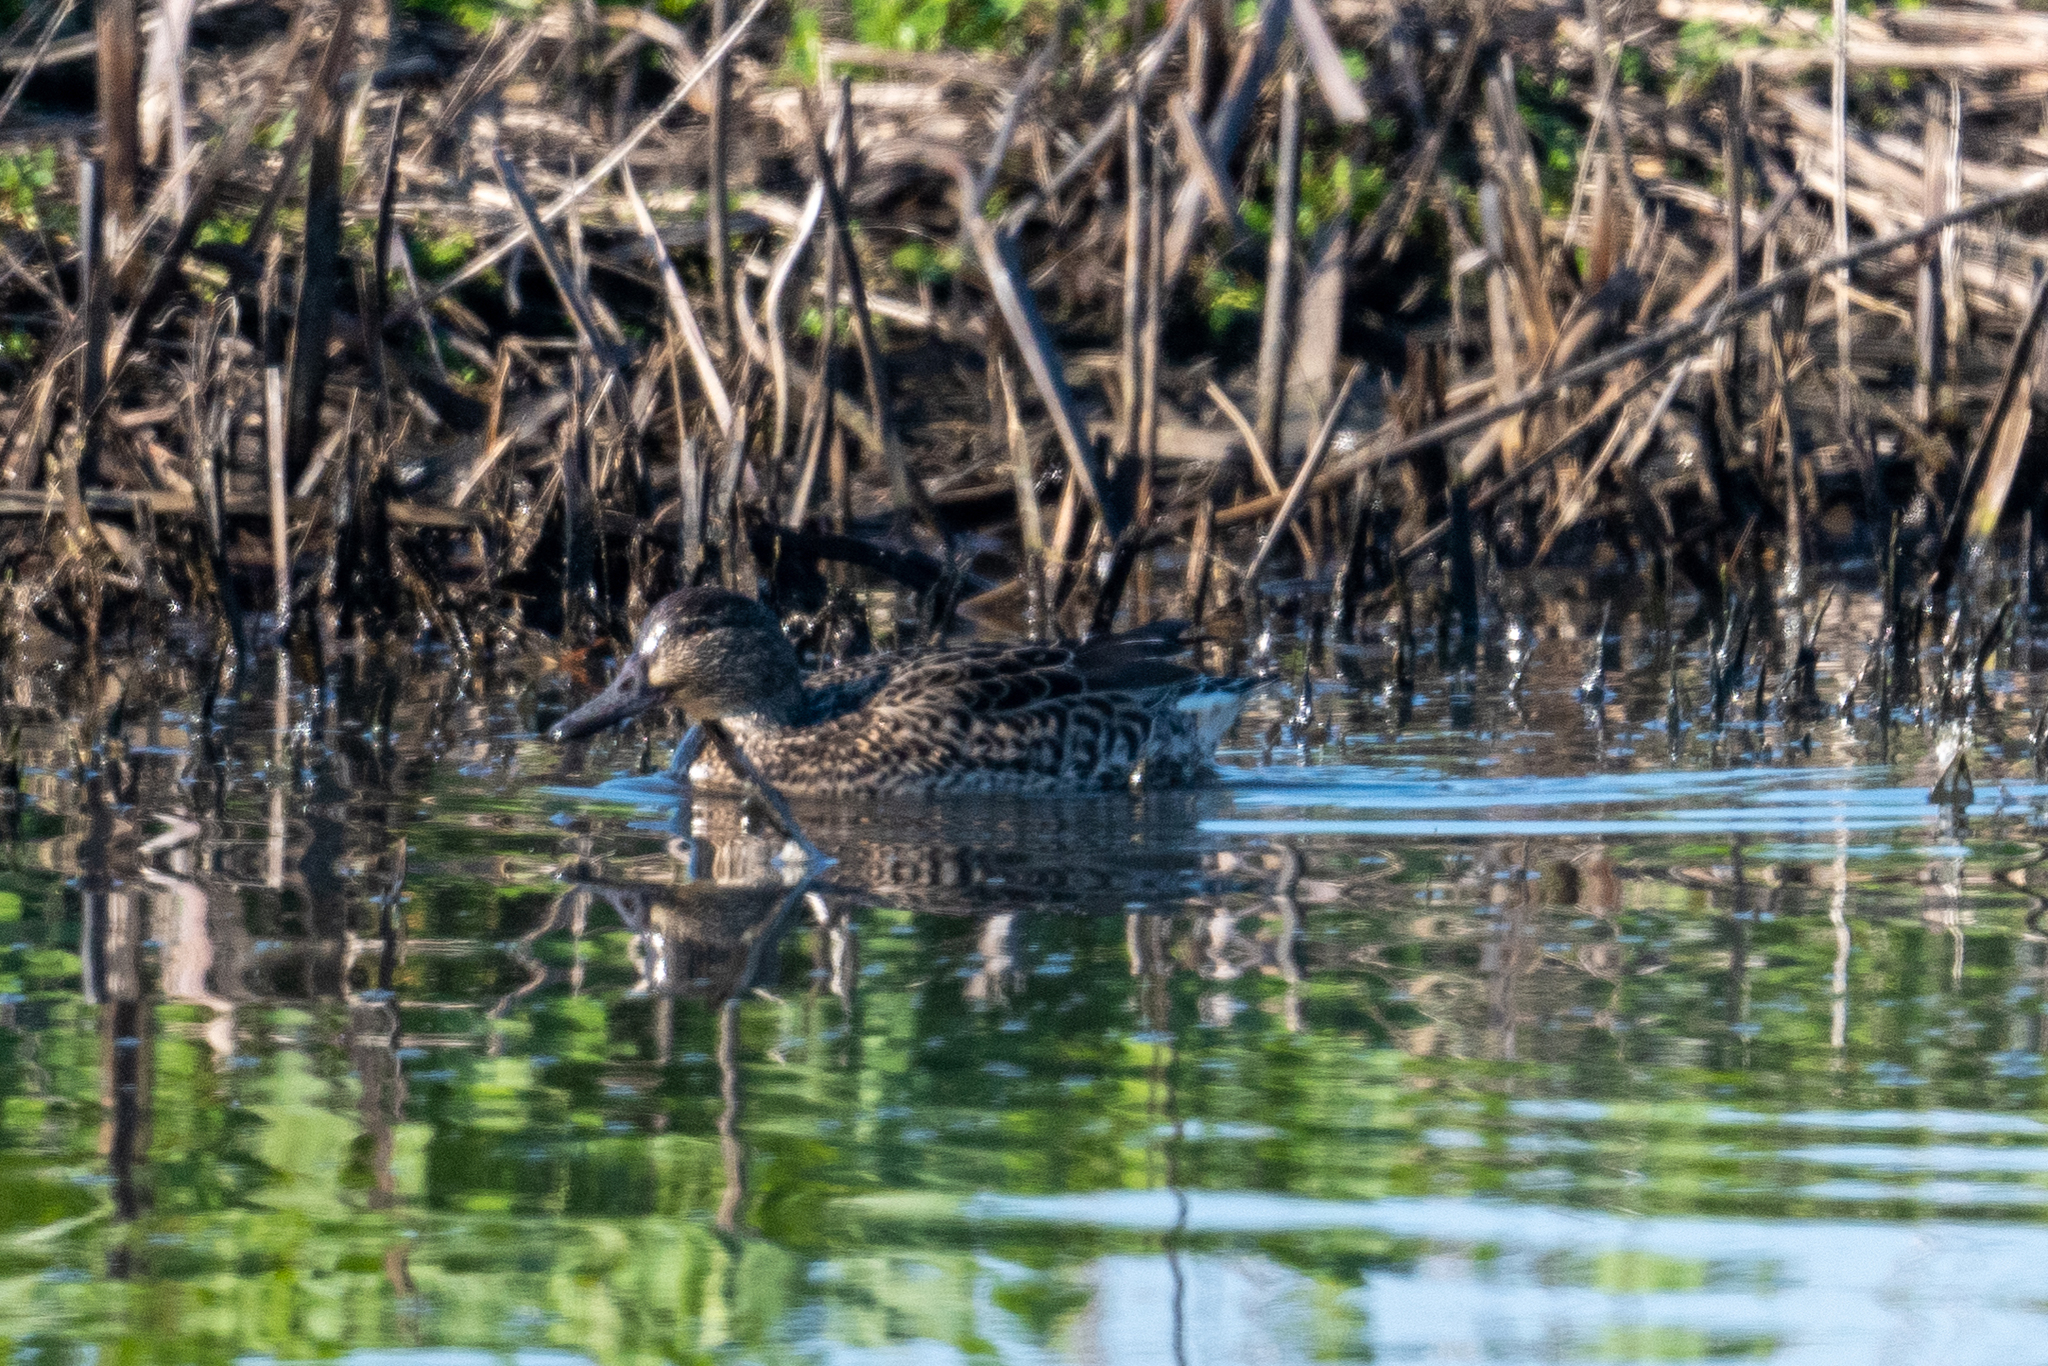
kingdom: Animalia
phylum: Chordata
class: Aves
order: Anseriformes
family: Anatidae
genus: Anas
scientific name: Anas crecca
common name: Eurasian teal
